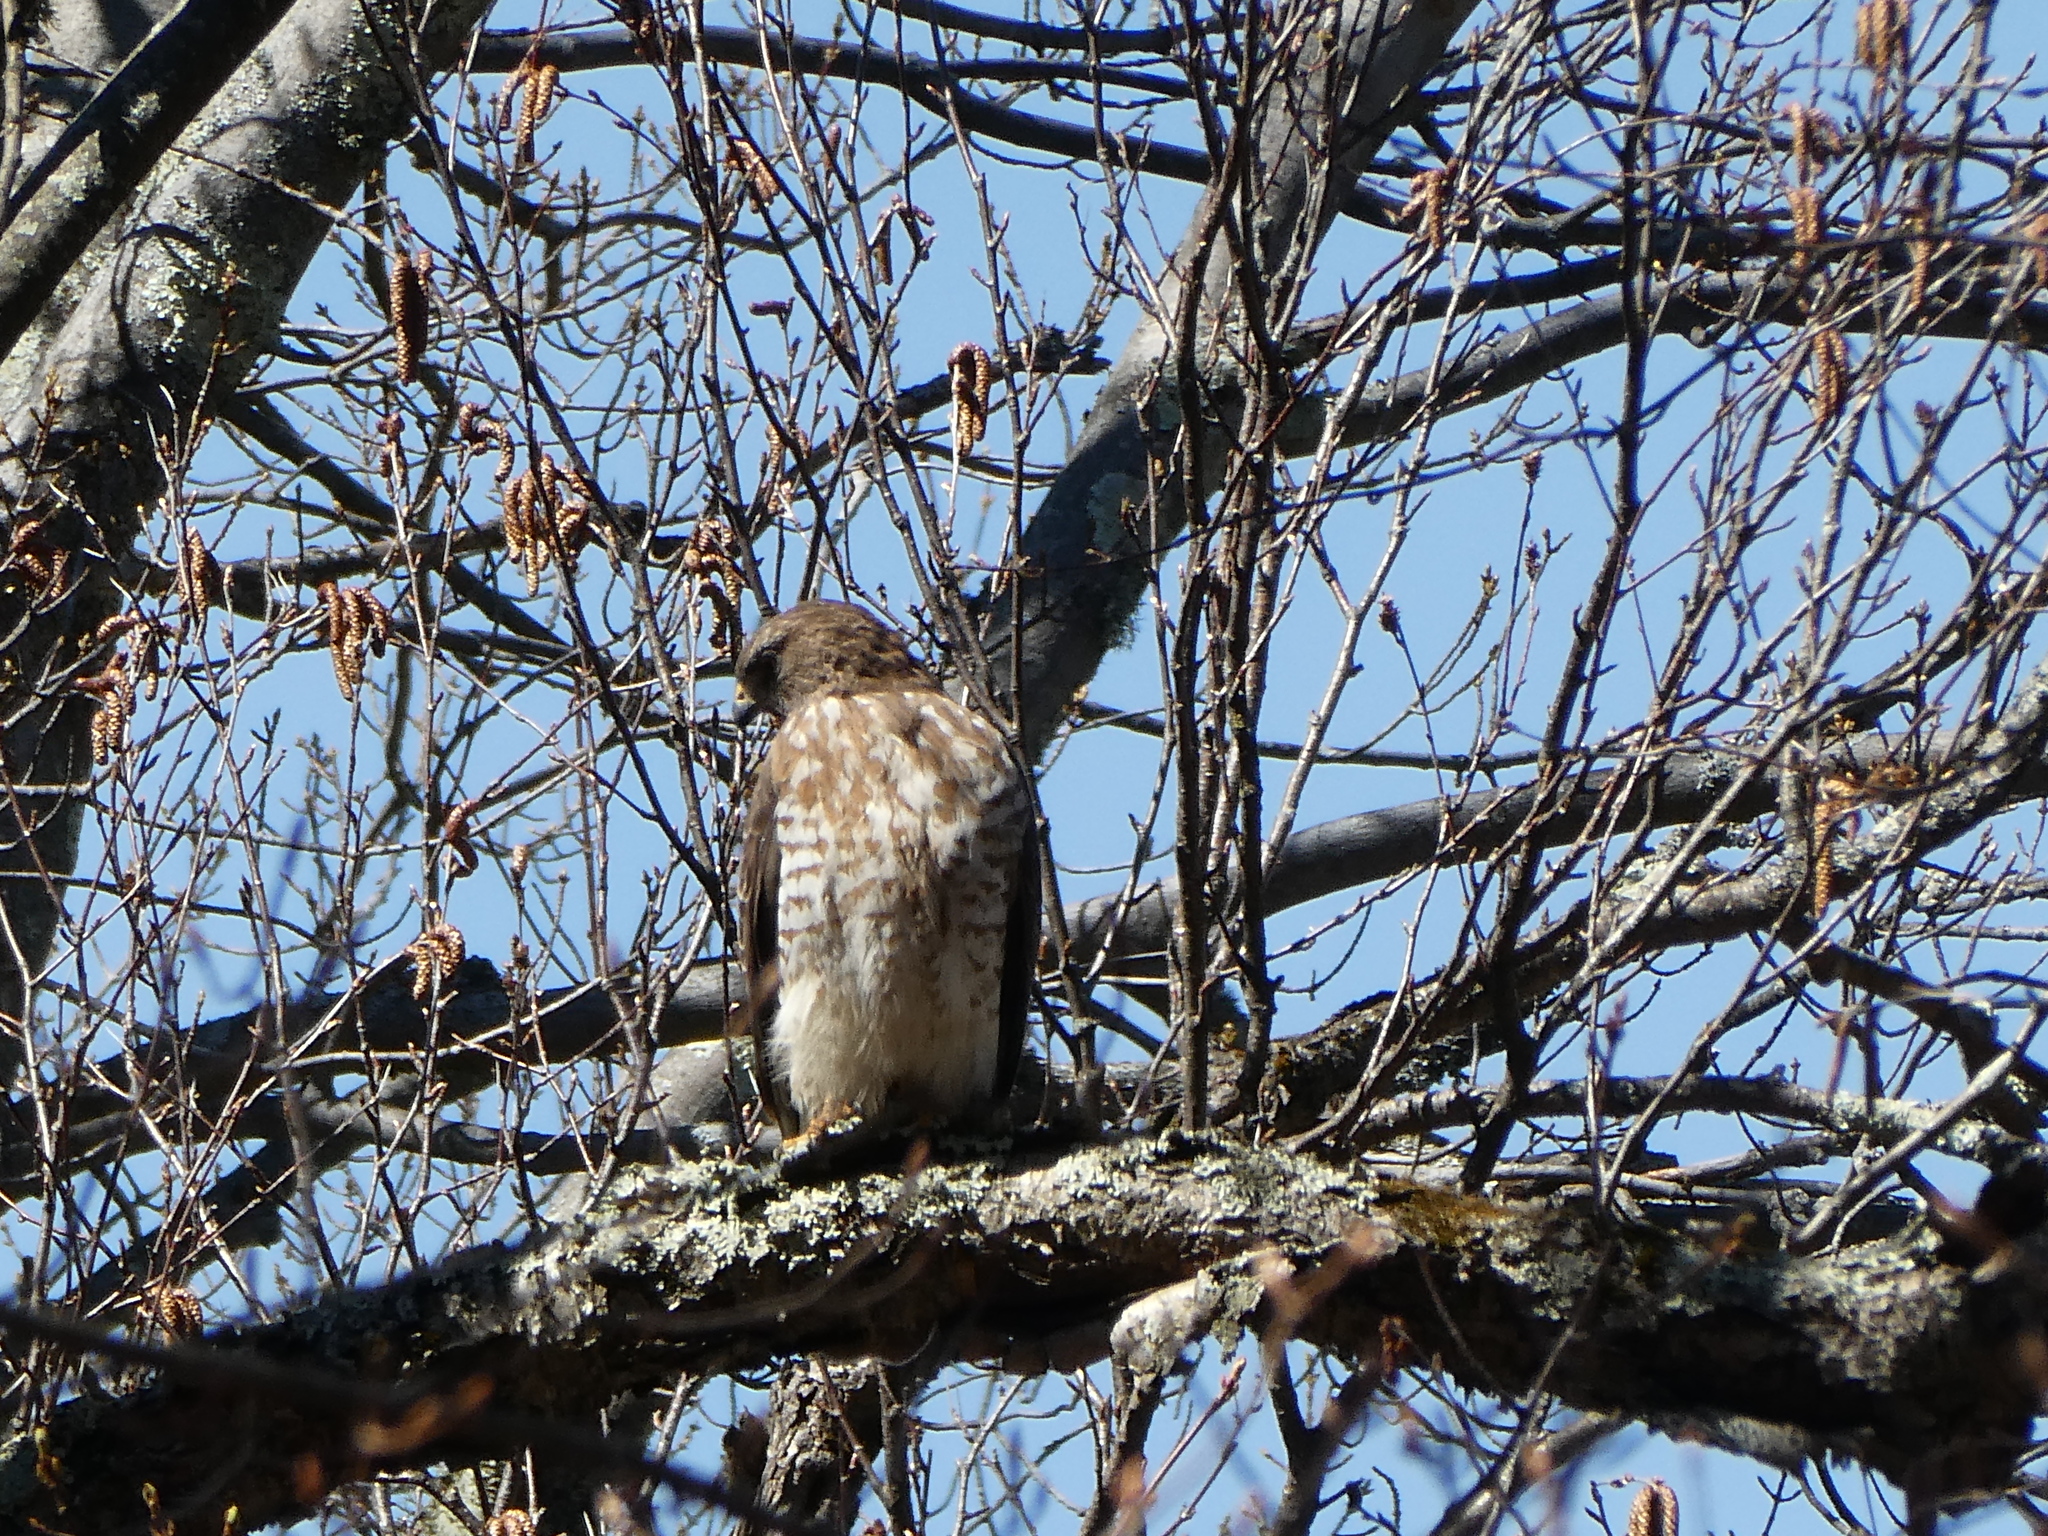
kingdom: Animalia
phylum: Chordata
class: Aves
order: Accipitriformes
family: Accipitridae
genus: Buteo
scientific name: Buteo platypterus
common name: Broad-winged hawk
